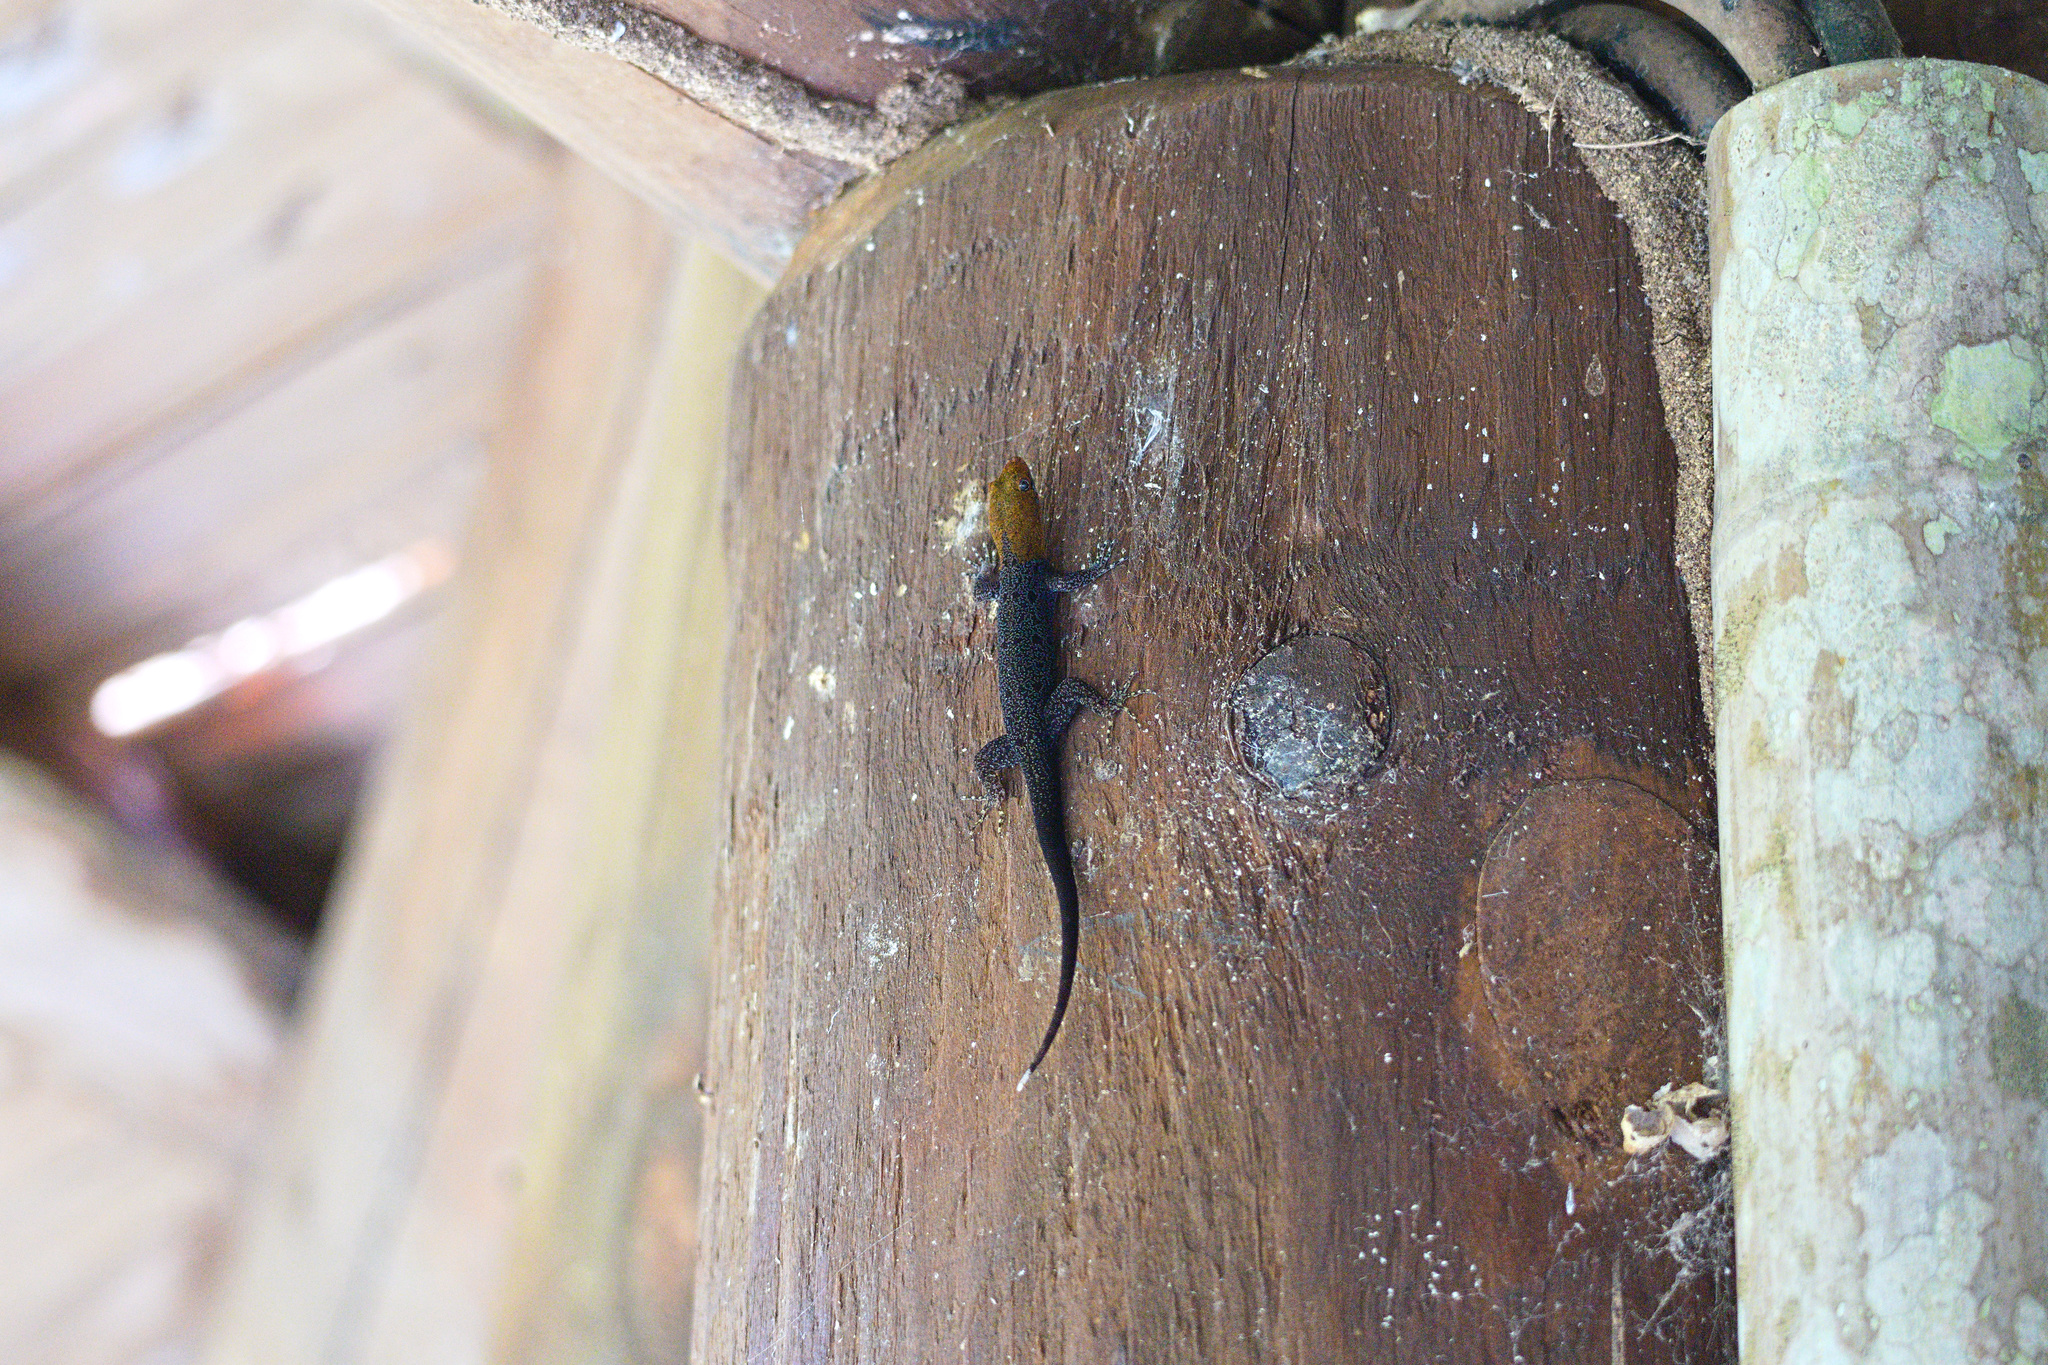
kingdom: Animalia
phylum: Chordata
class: Squamata
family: Sphaerodactylidae
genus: Gonatodes
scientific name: Gonatodes albogularis
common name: Yellow-headed gecko
